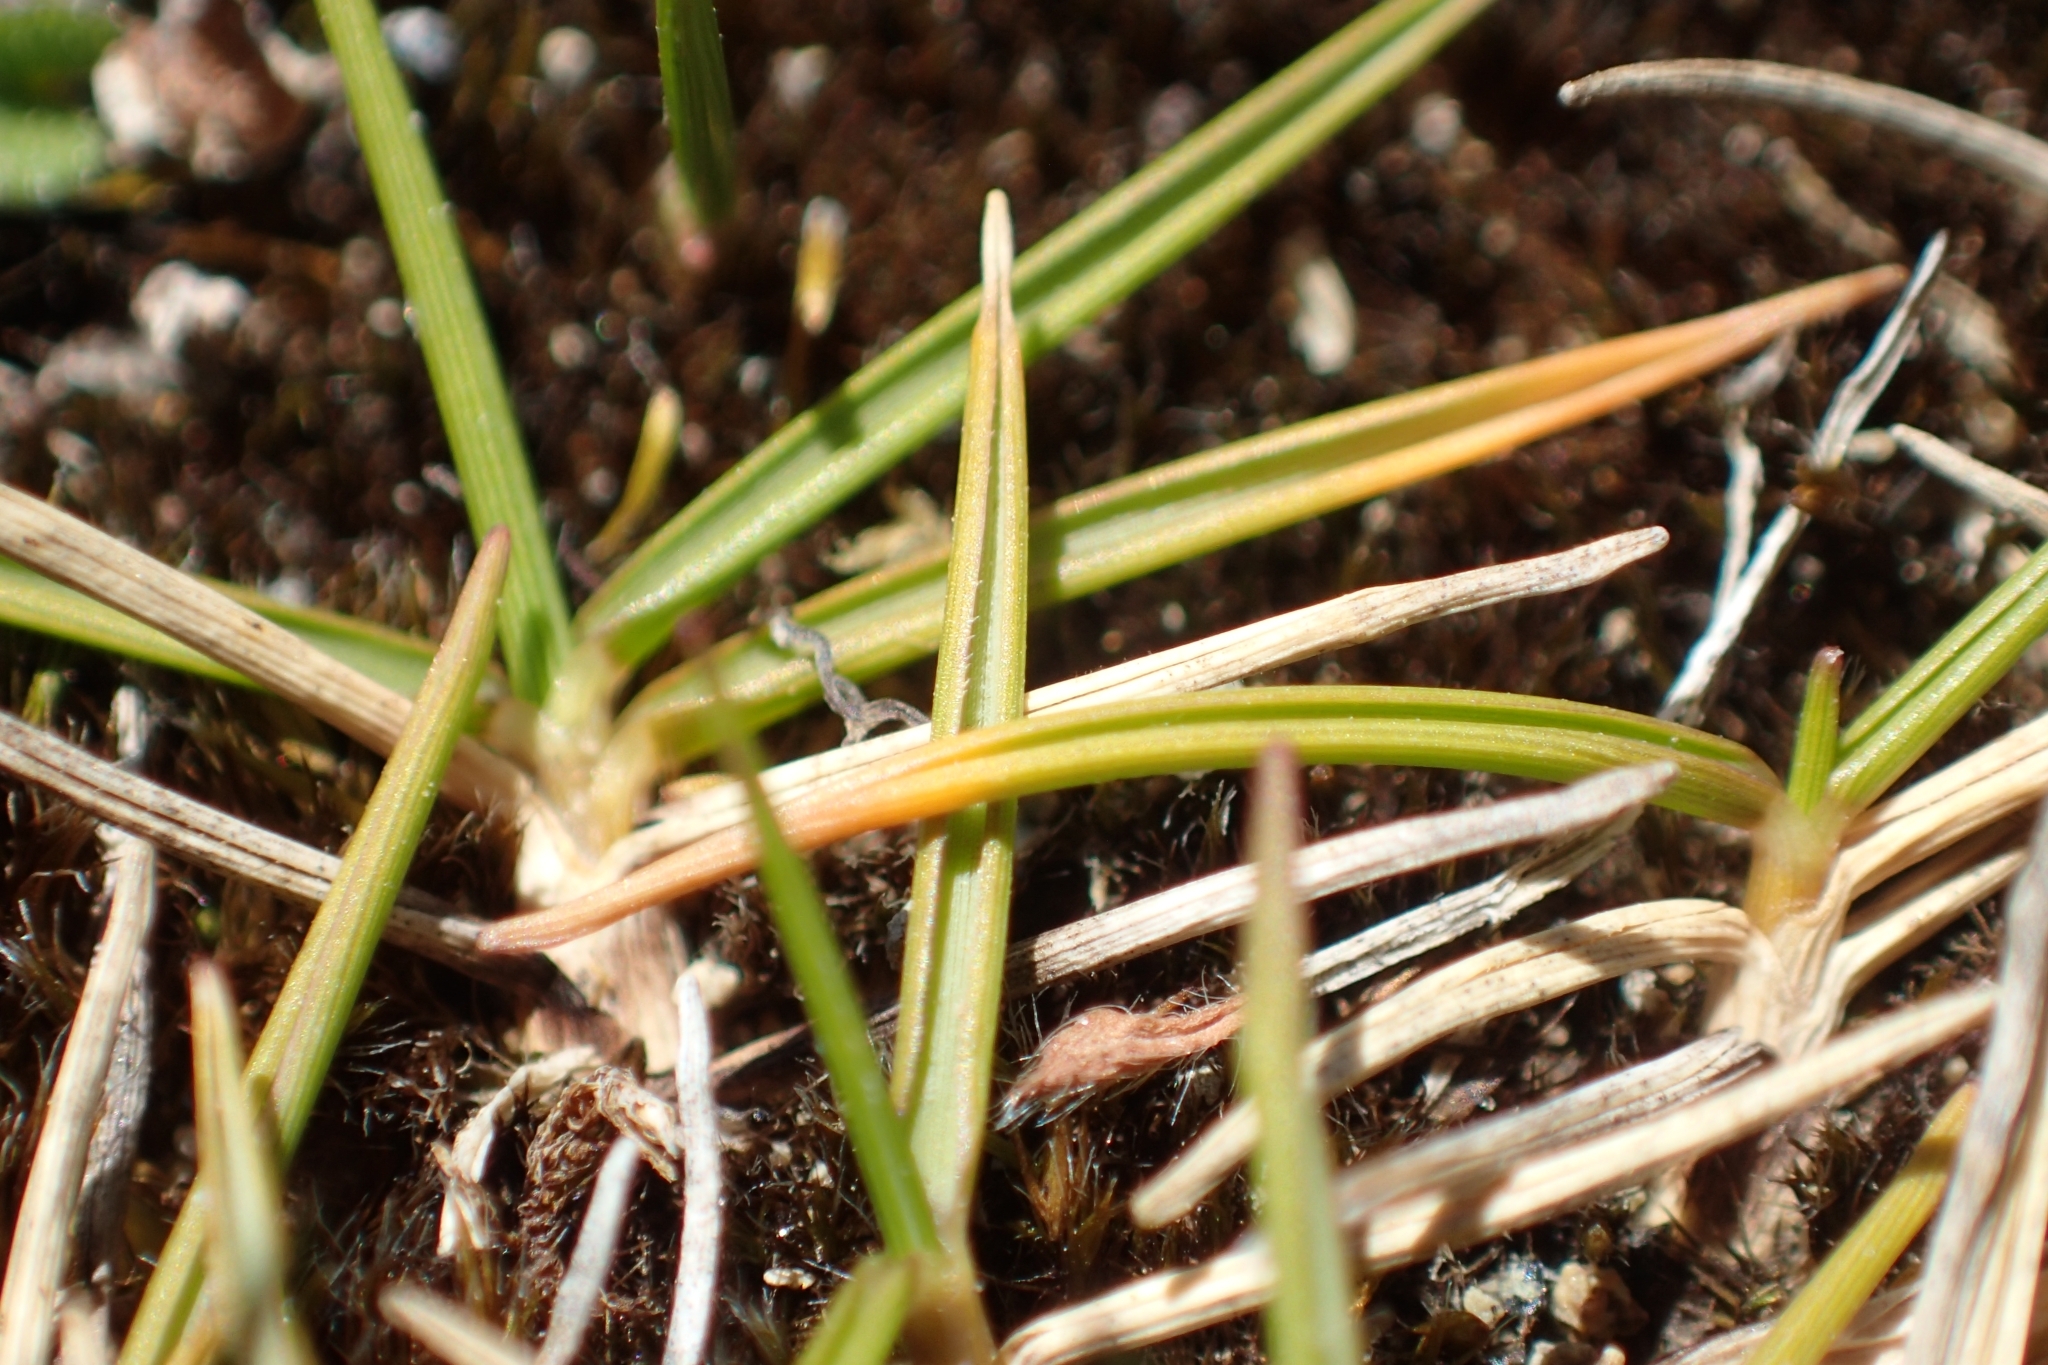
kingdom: Plantae
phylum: Tracheophyta
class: Liliopsida
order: Poales
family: Poaceae
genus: Zoysia
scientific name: Zoysia minima
